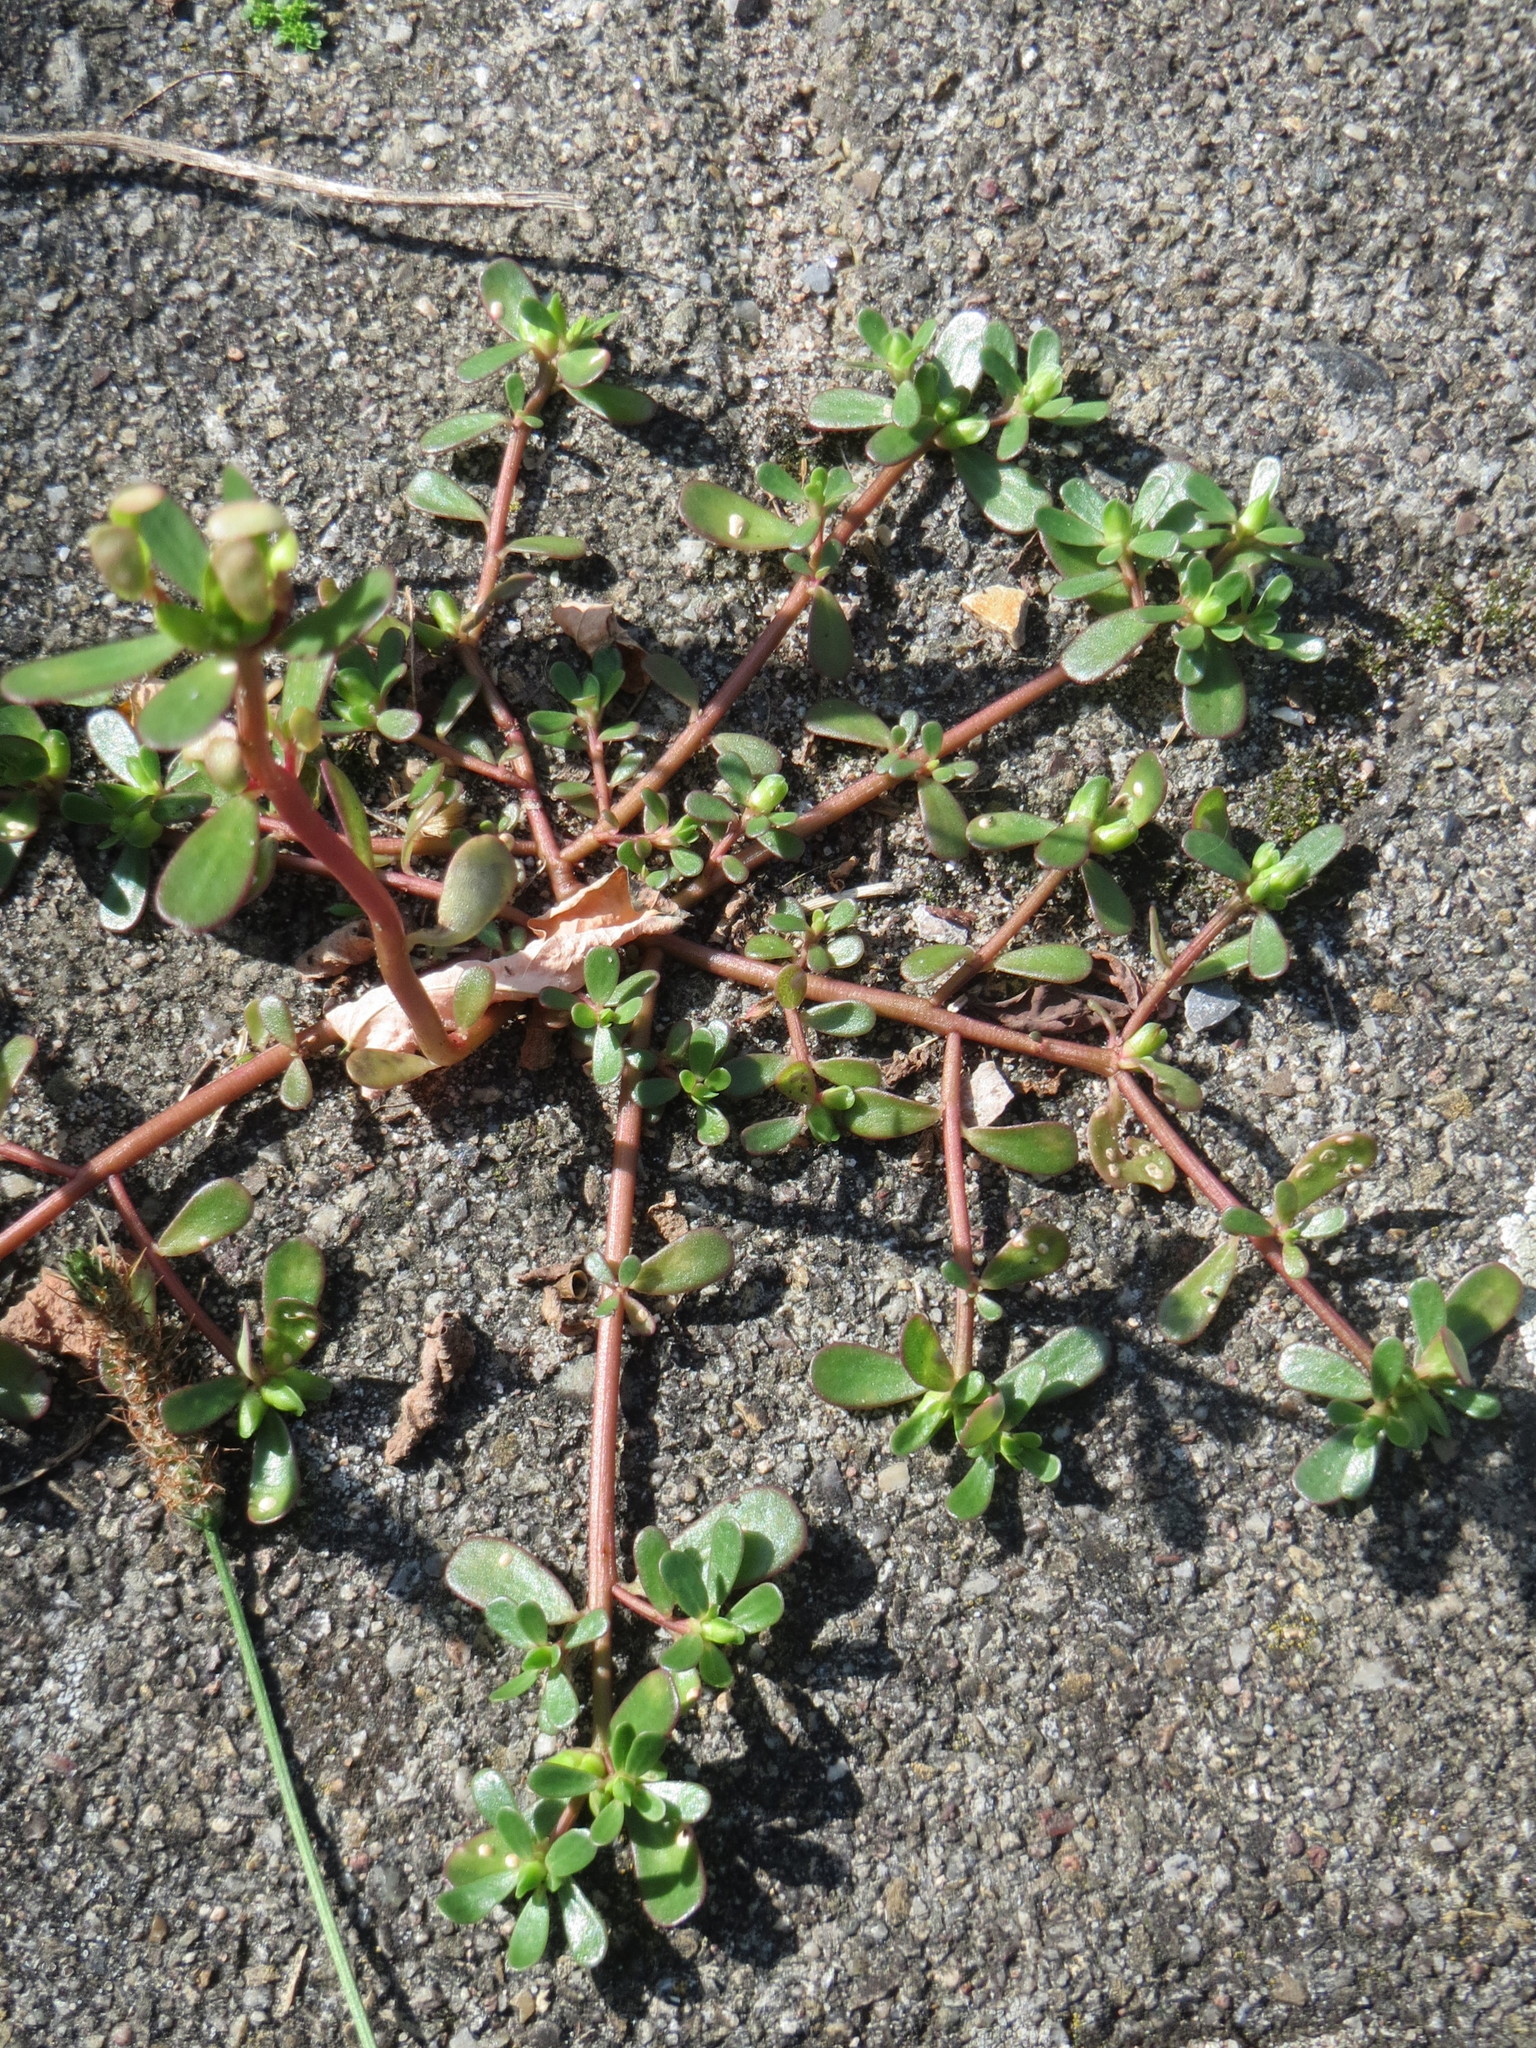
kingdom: Plantae
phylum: Tracheophyta
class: Magnoliopsida
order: Caryophyllales
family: Portulacaceae
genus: Portulaca
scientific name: Portulaca oleracea
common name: Common purslane
